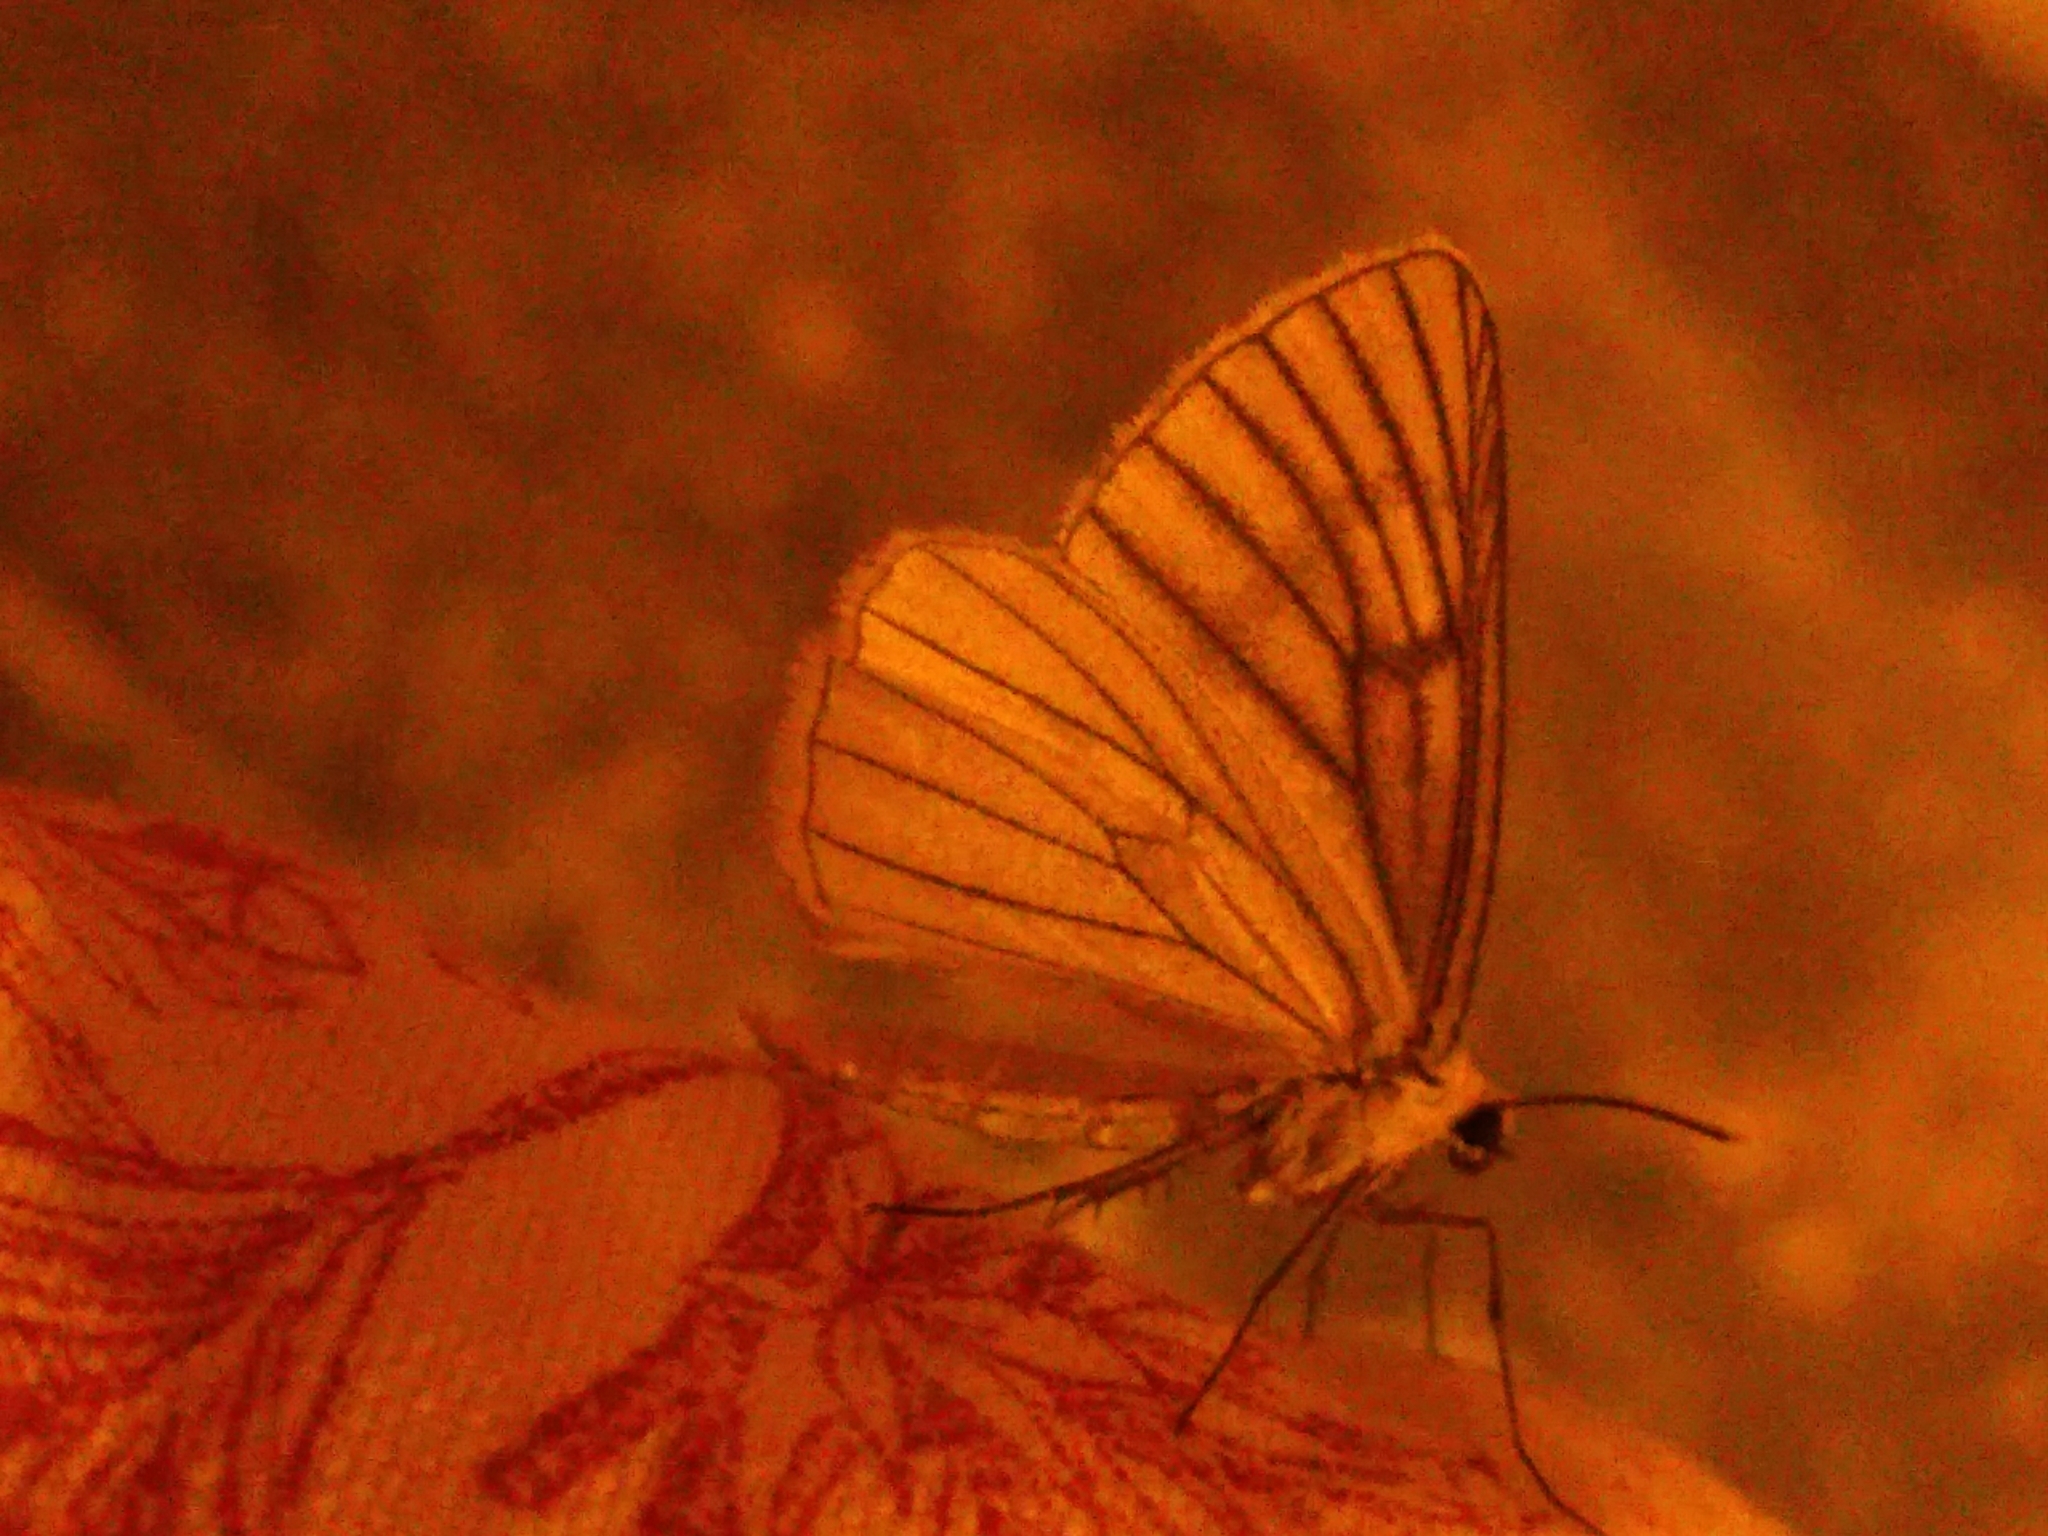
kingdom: Animalia
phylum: Arthropoda
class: Insecta
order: Lepidoptera
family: Geometridae
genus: Siona
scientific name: Siona lineata
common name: Black-veined moth
